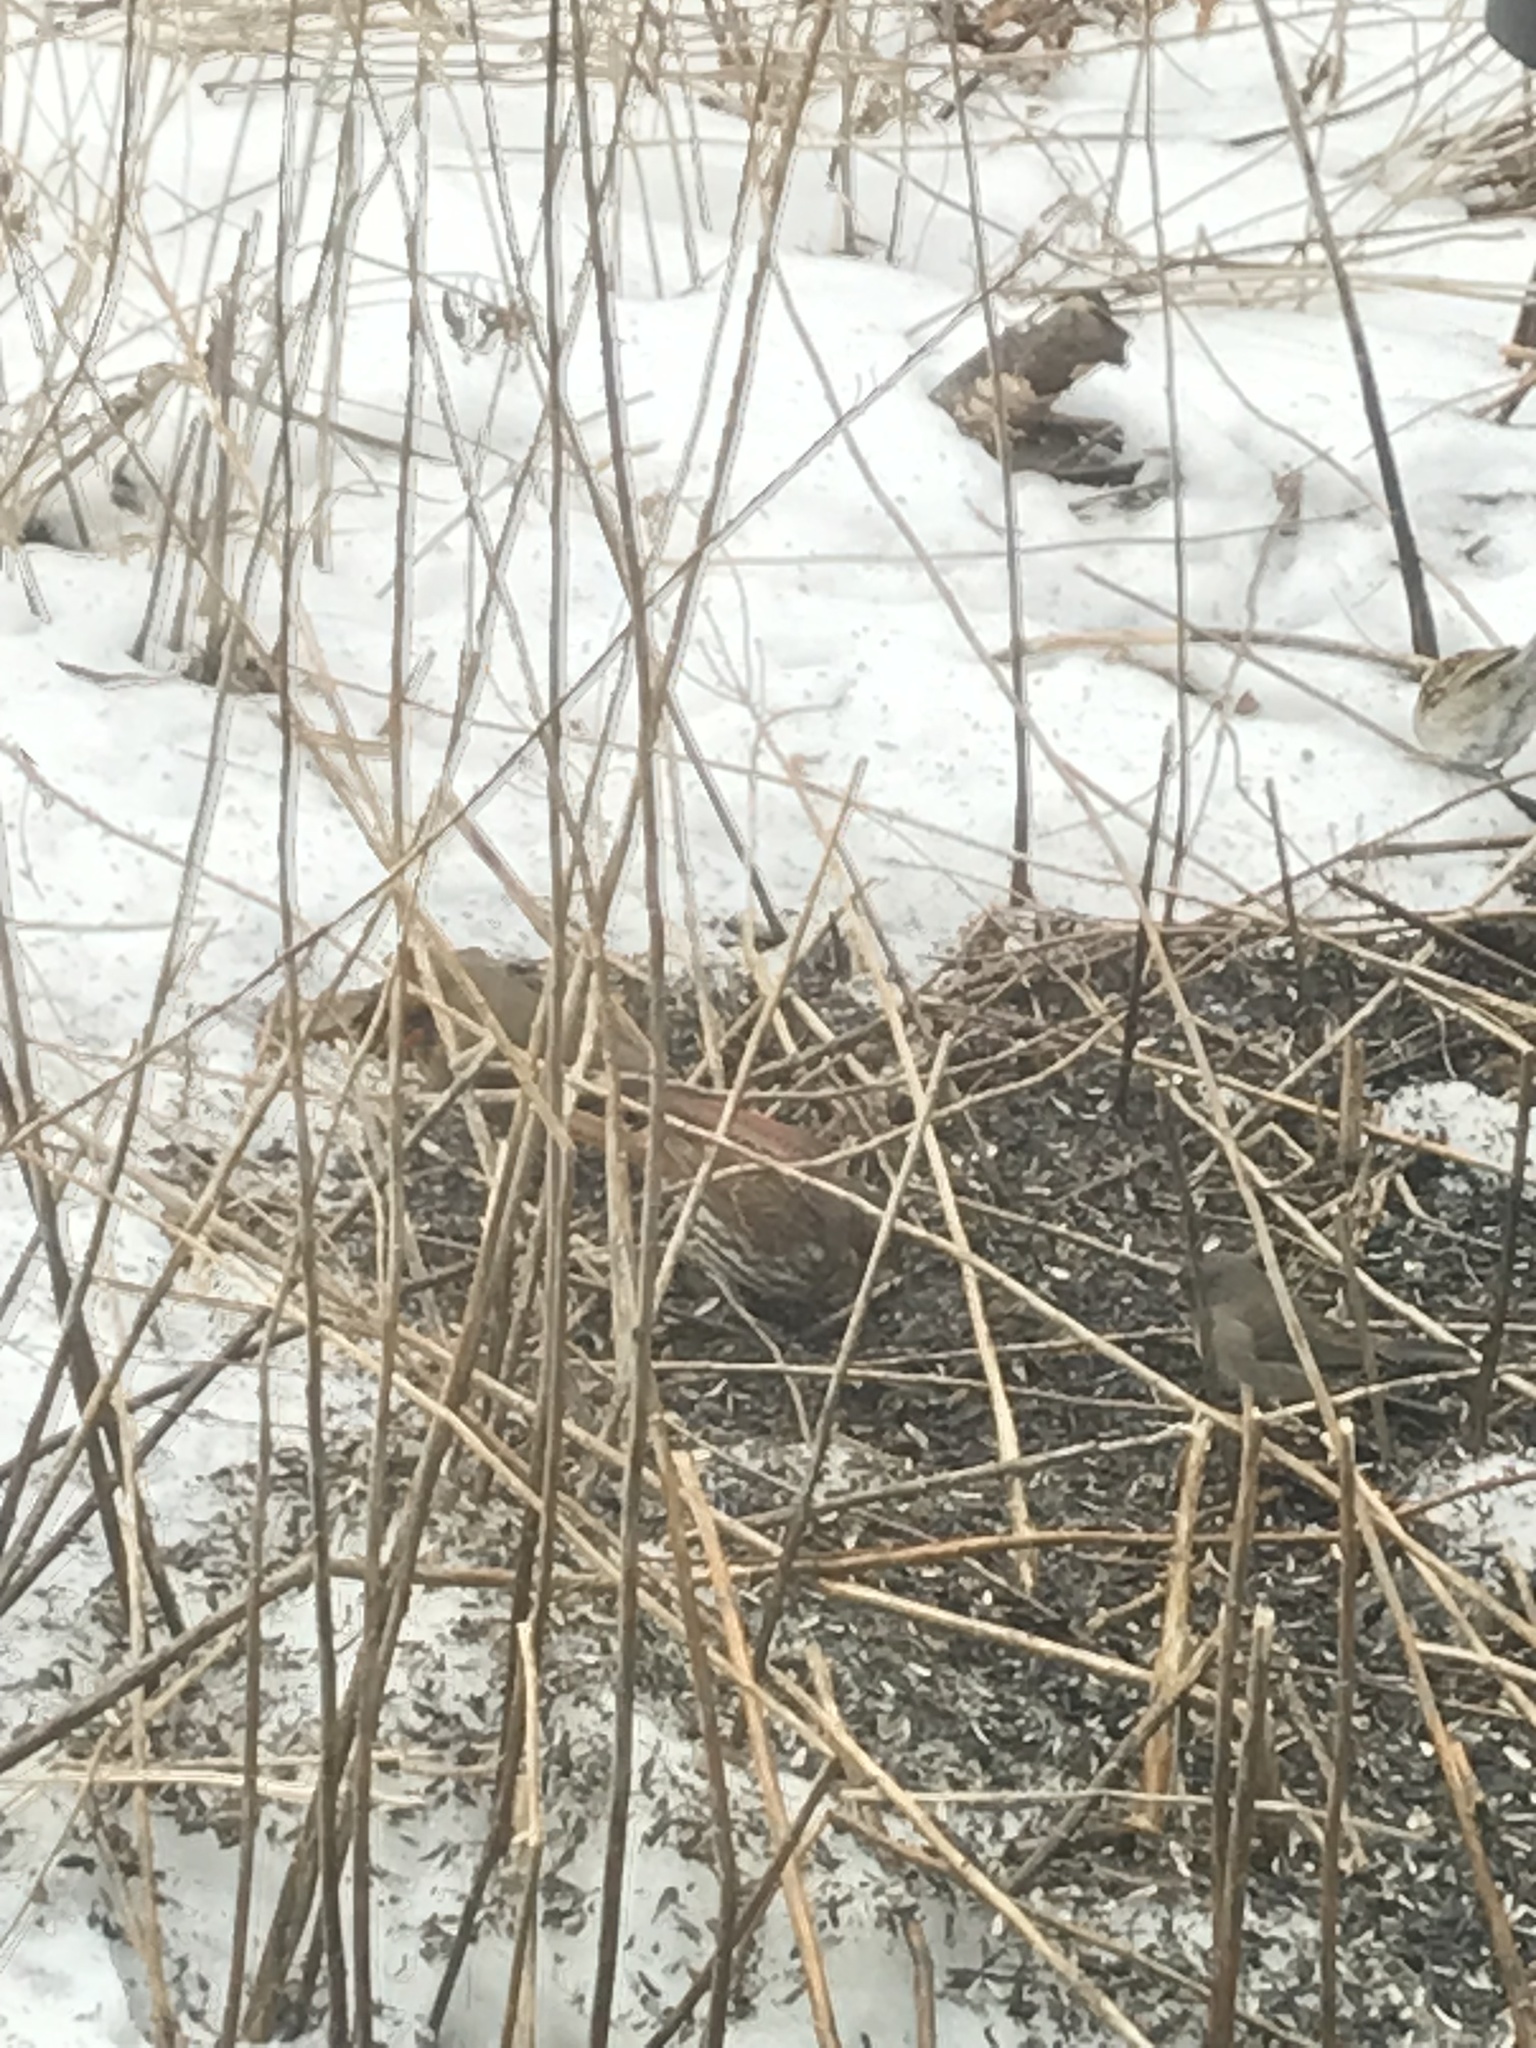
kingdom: Animalia
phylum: Chordata
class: Aves
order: Passeriformes
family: Passerellidae
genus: Passerella
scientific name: Passerella iliaca
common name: Fox sparrow
